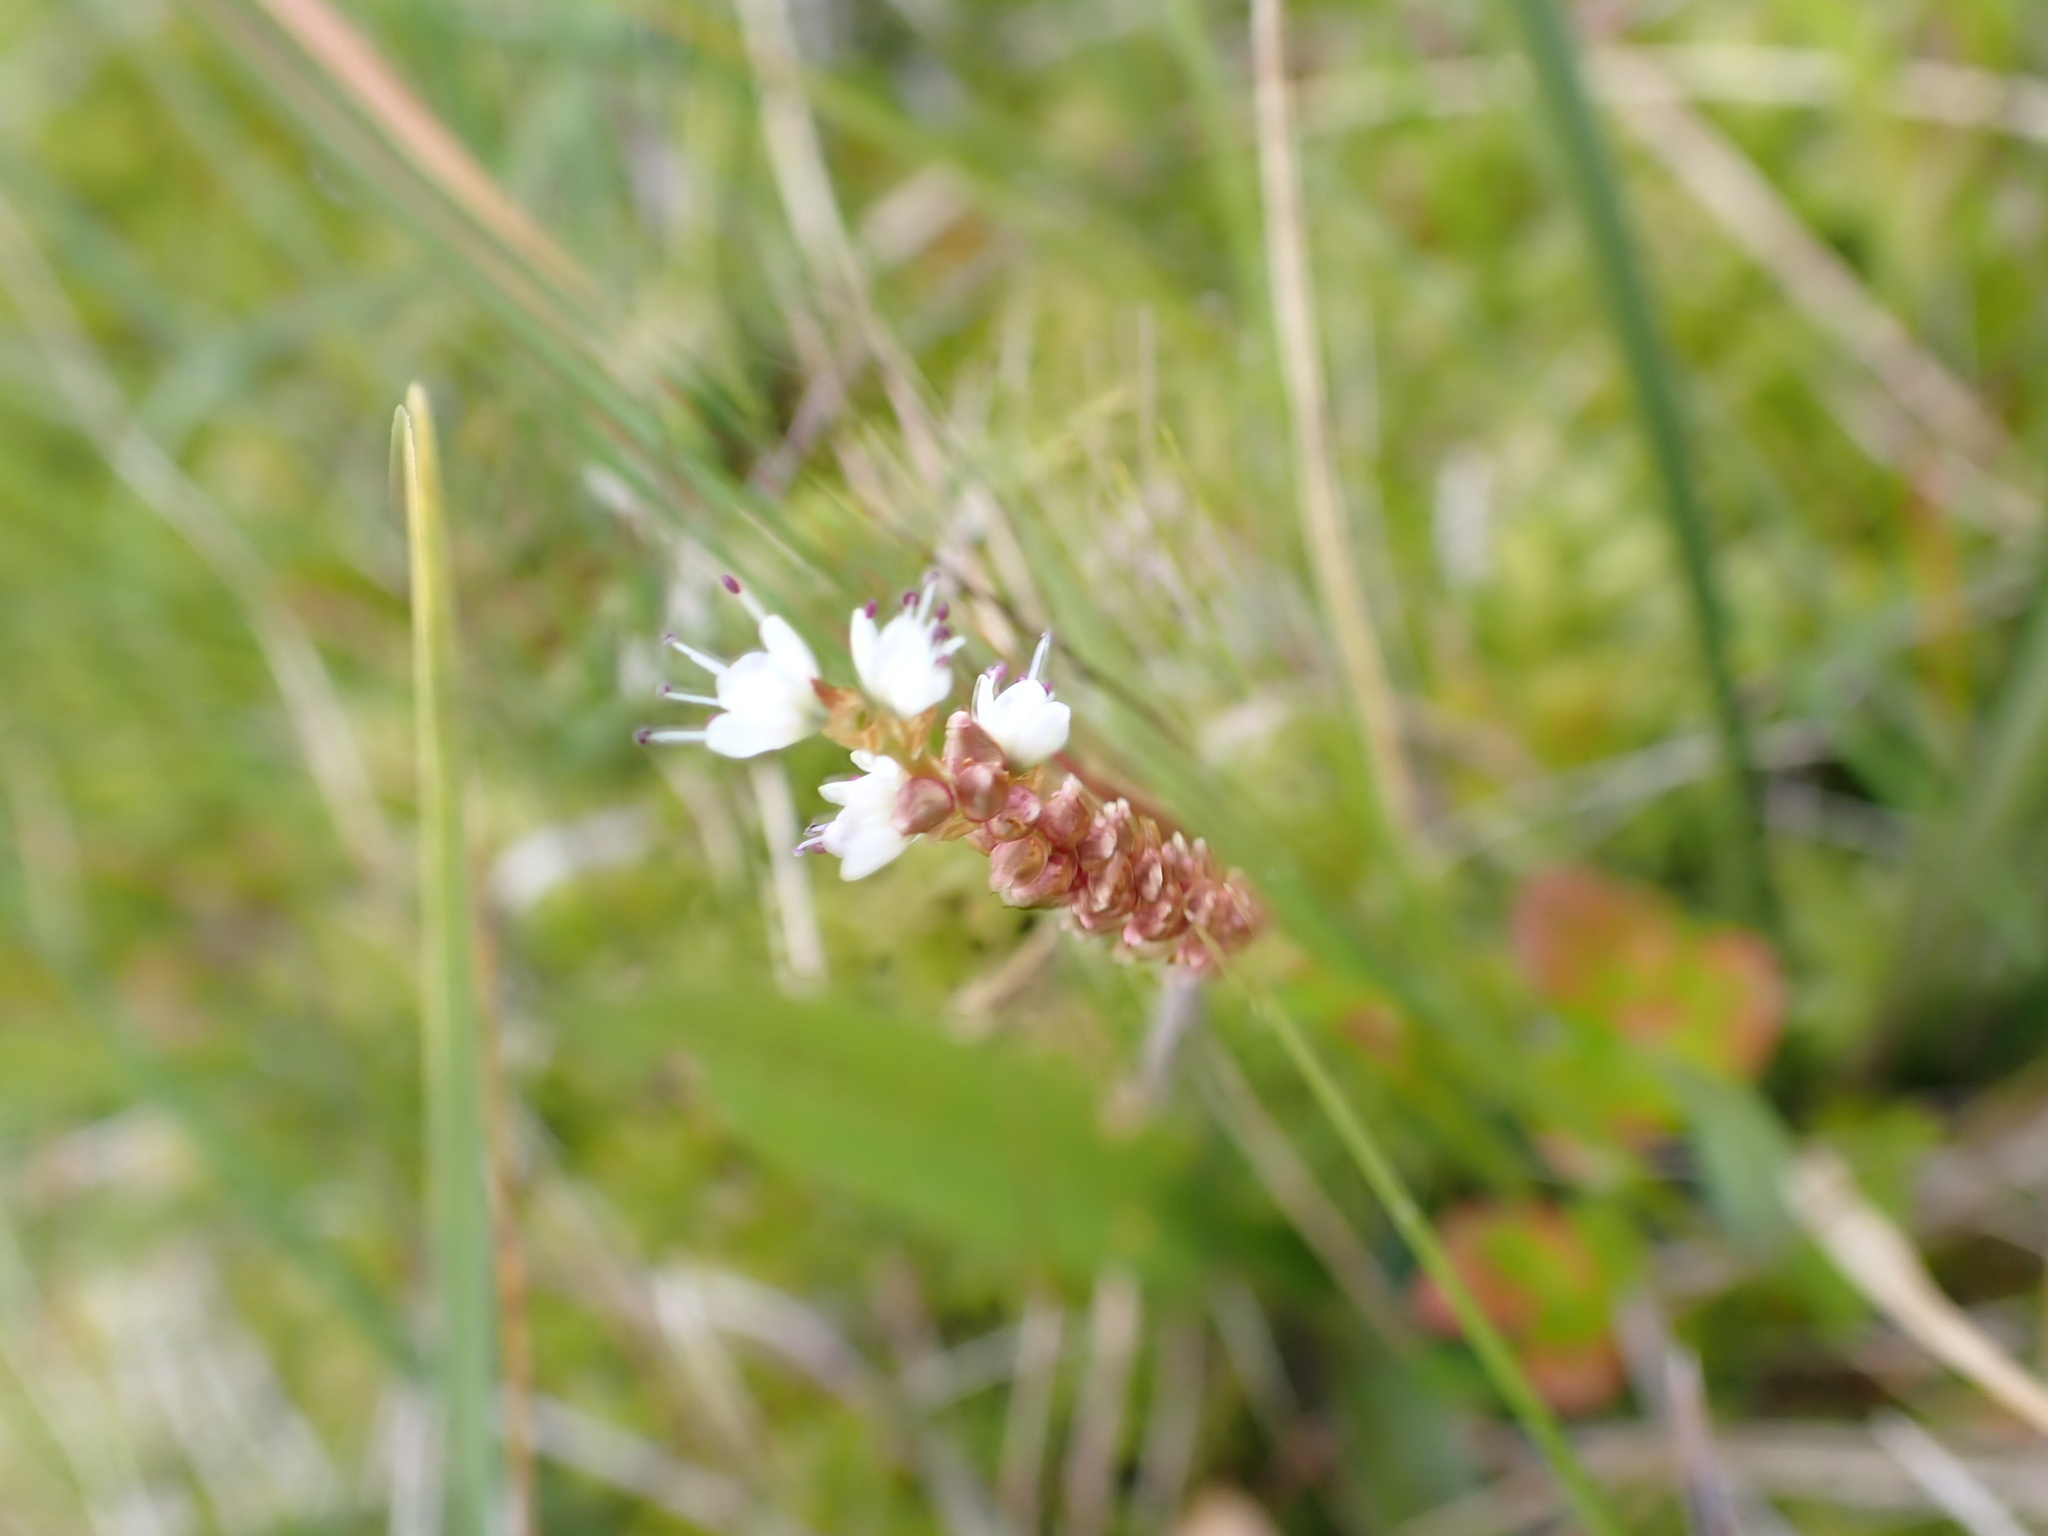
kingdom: Plantae
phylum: Tracheophyta
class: Magnoliopsida
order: Caryophyllales
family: Polygonaceae
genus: Bistorta
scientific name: Bistorta vivipara
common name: Alpine bistort
